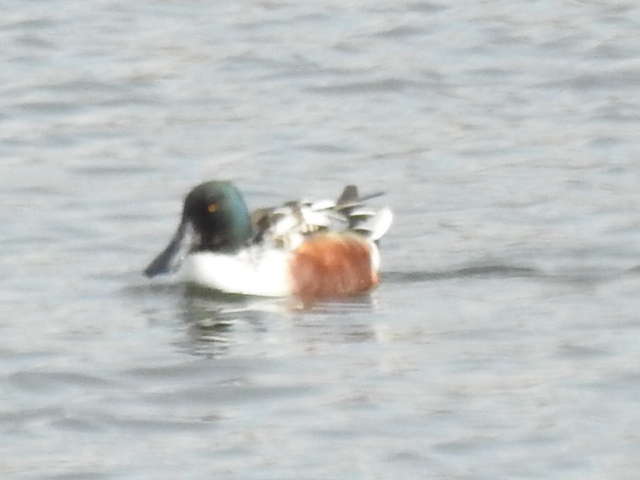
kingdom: Animalia
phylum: Chordata
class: Aves
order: Anseriformes
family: Anatidae
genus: Spatula
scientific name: Spatula clypeata
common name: Northern shoveler
